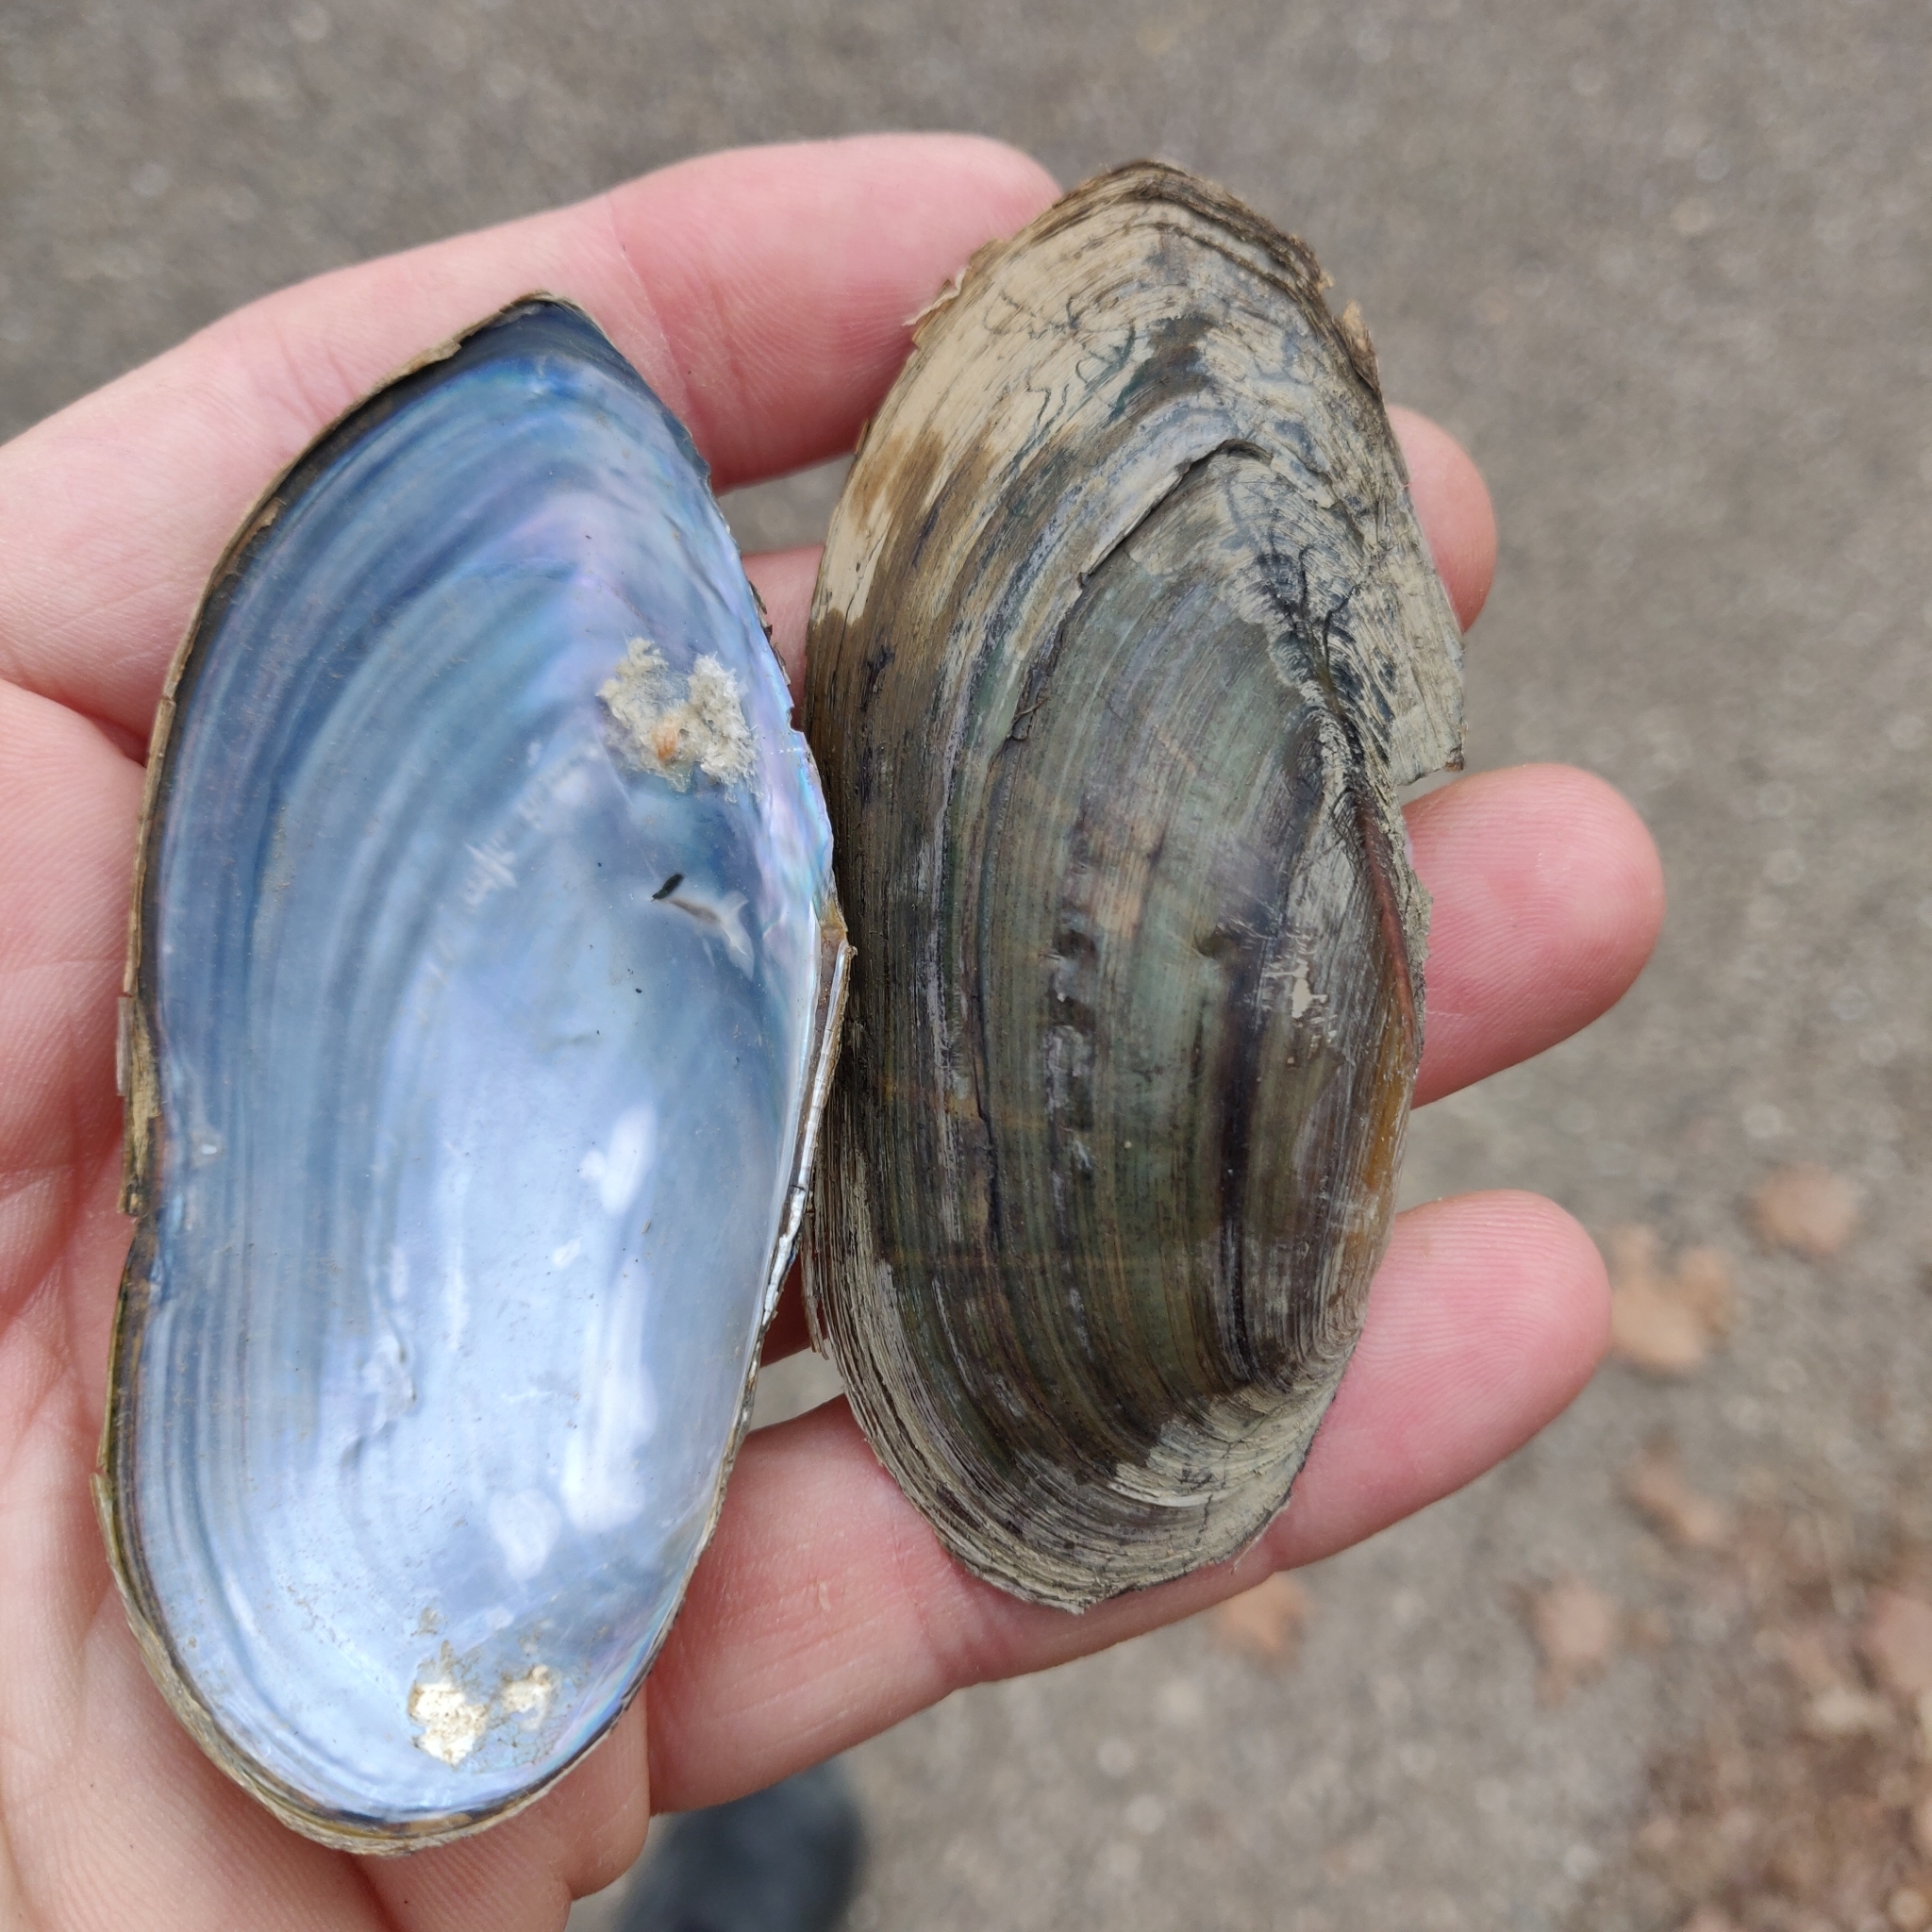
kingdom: Animalia
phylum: Mollusca
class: Bivalvia
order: Unionida
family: Unionidae
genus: Utterbackia
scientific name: Utterbackia imbecillis
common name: Paper pondshell
